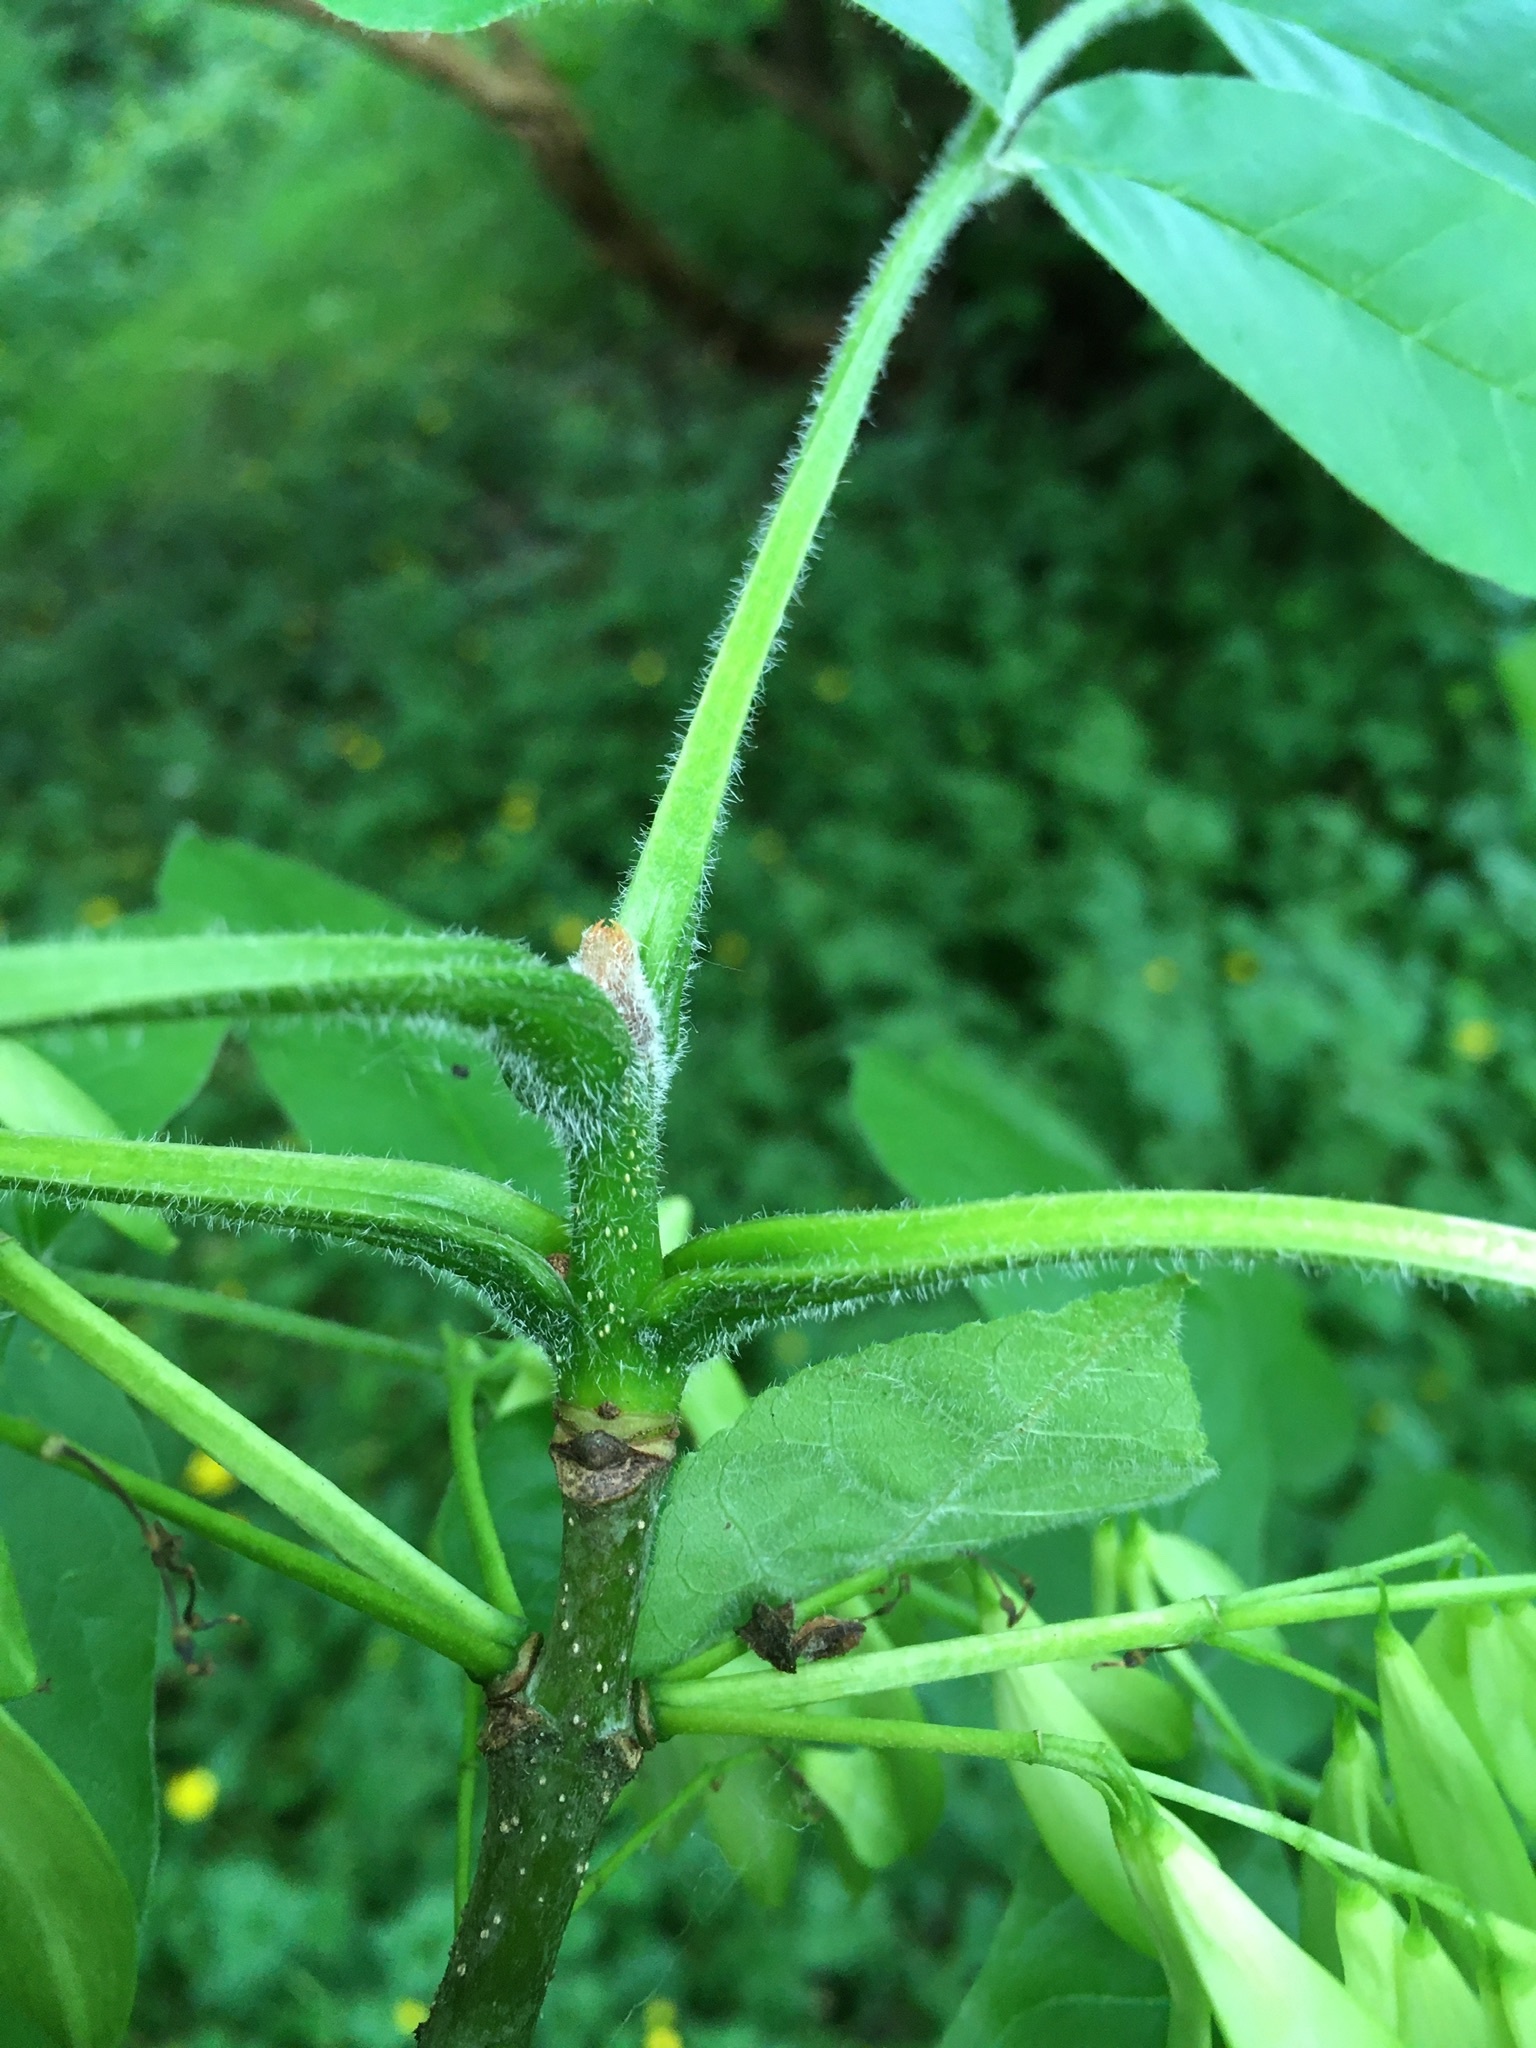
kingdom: Plantae
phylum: Tracheophyta
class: Magnoliopsida
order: Lamiales
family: Oleaceae
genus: Fraxinus
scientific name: Fraxinus latifolia
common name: Oregon ash
